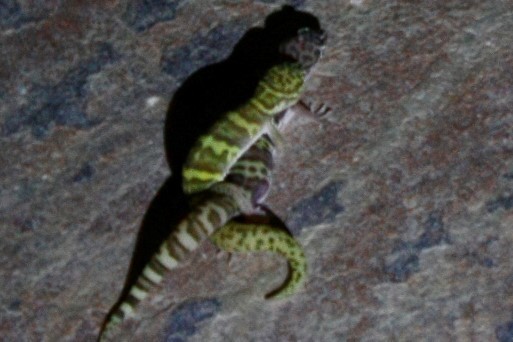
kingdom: Animalia
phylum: Chordata
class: Squamata
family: Eublepharidae
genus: Coleonyx
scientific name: Coleonyx variegatus
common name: Western banded gecko
